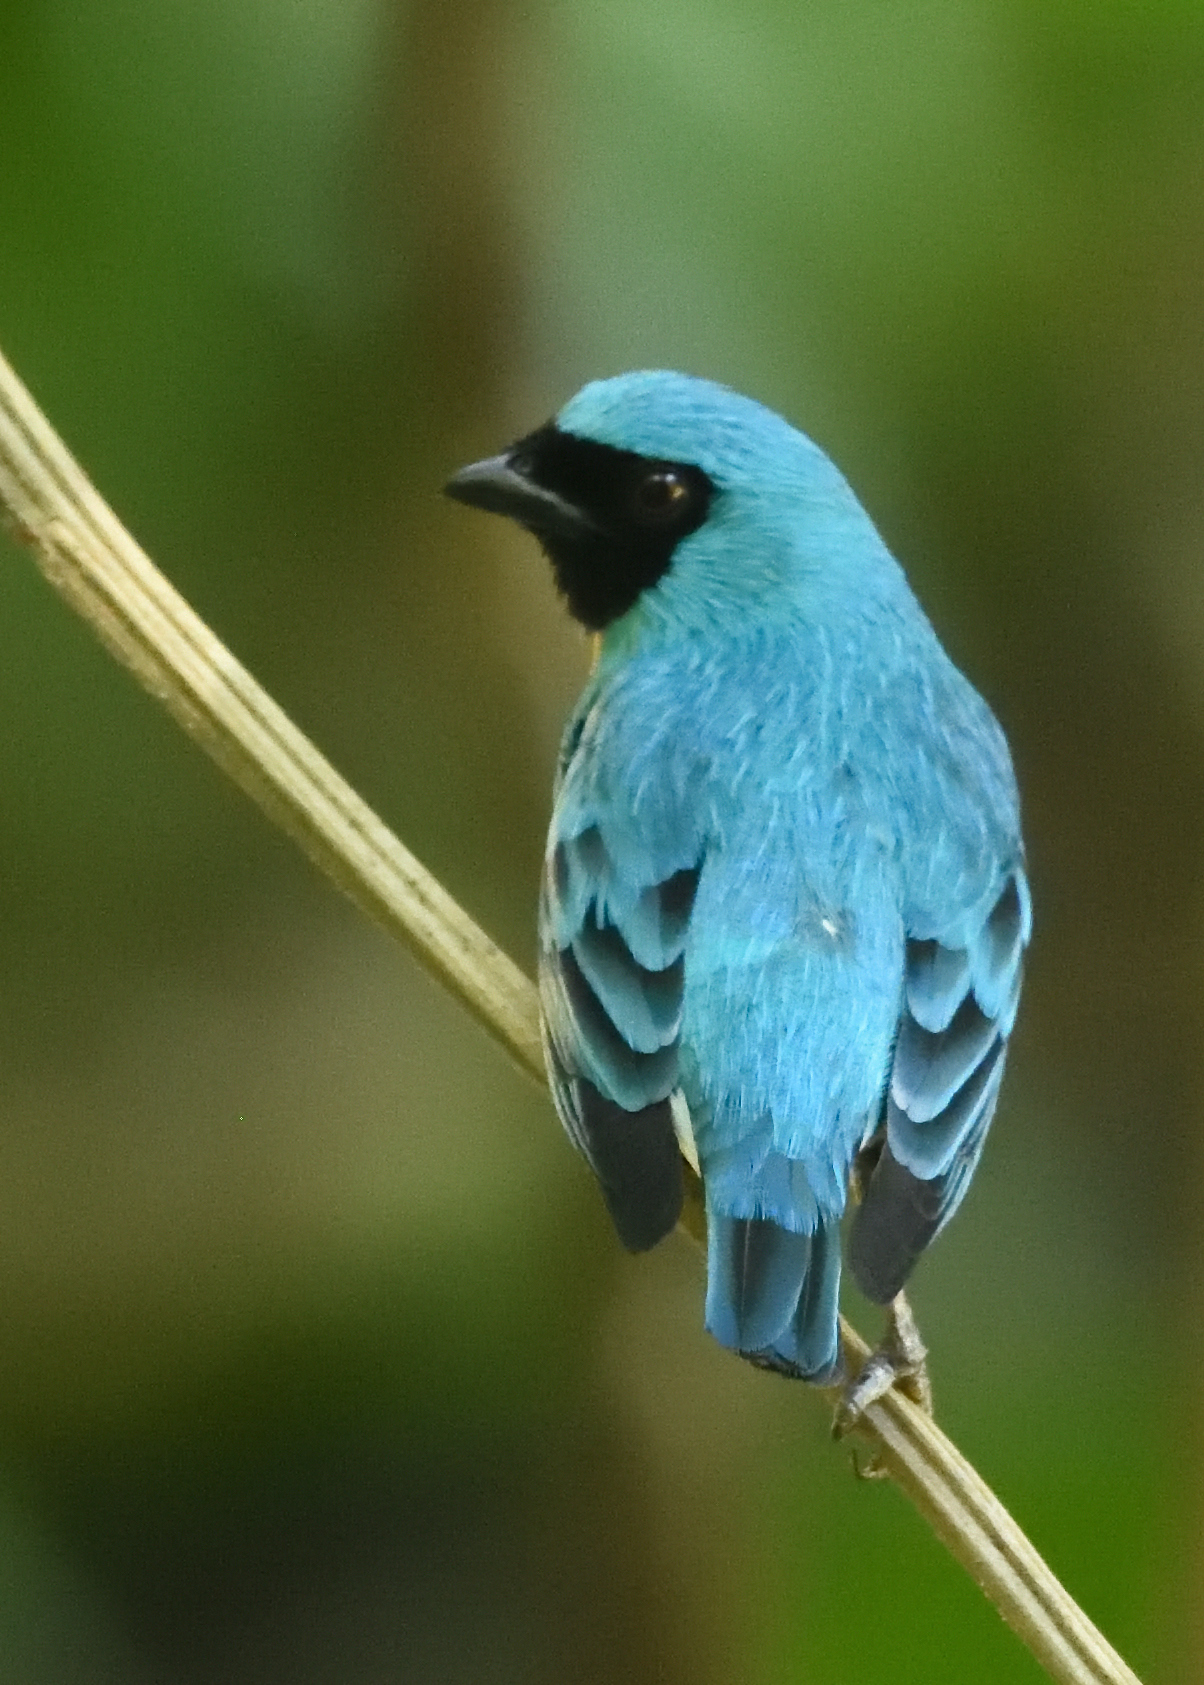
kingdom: Animalia
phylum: Chordata
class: Aves
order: Passeriformes
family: Thraupidae
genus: Tersina
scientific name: Tersina viridis
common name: Swallow tanager
